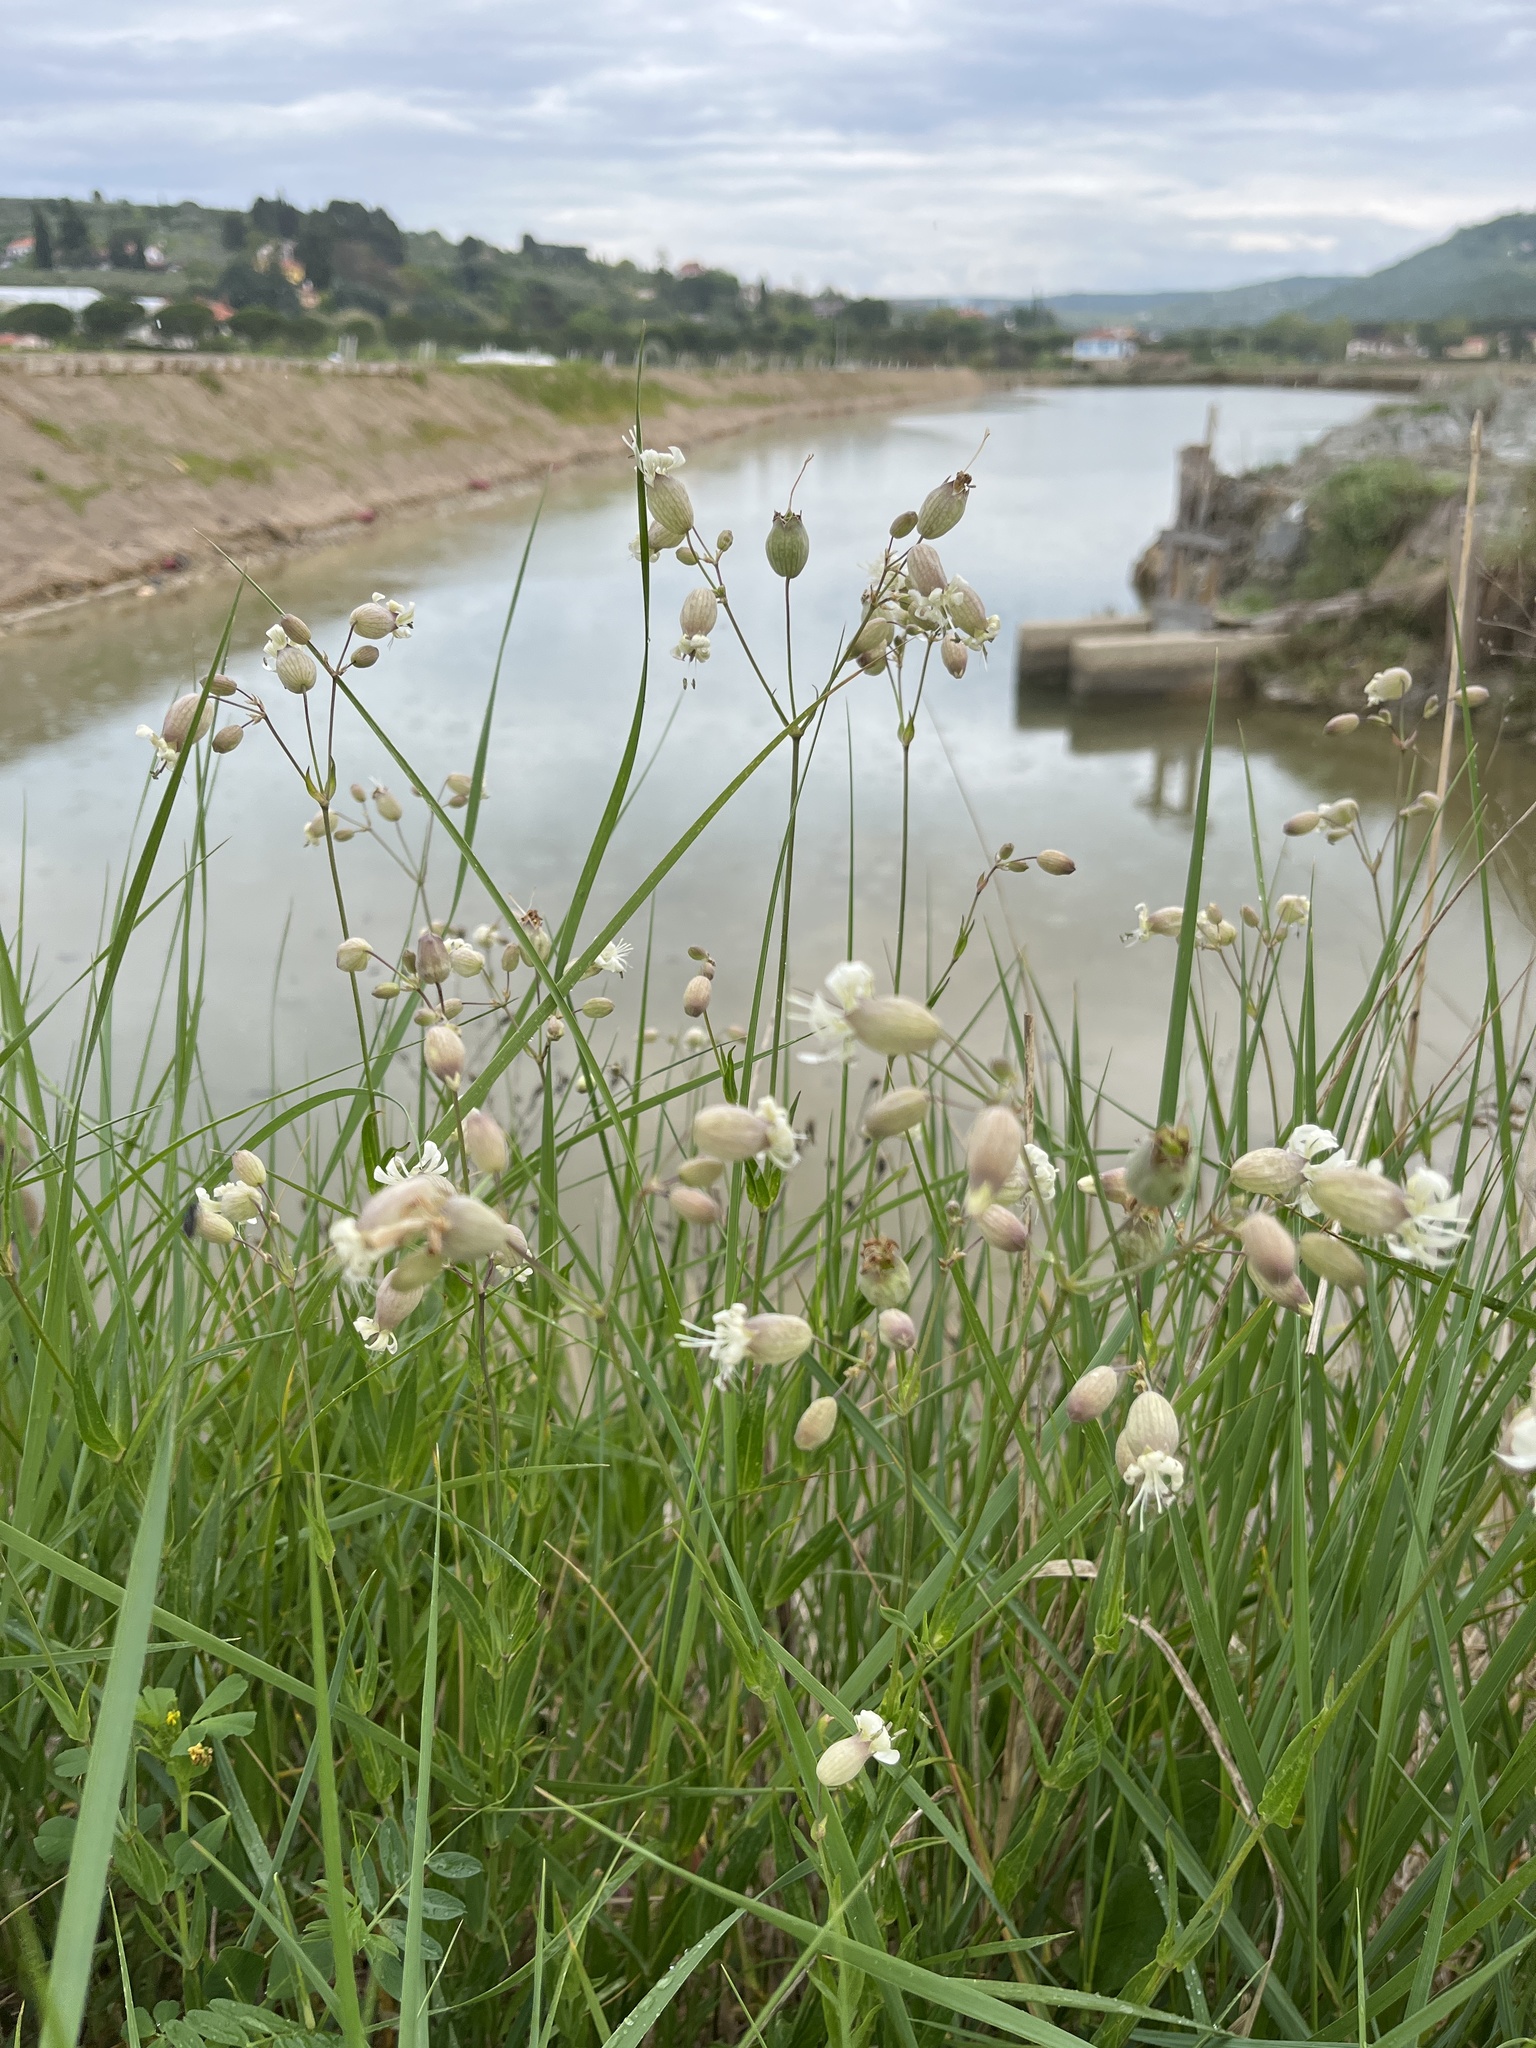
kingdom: Plantae
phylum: Tracheophyta
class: Magnoliopsida
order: Caryophyllales
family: Caryophyllaceae
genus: Silene
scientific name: Silene vulgaris
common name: Bladder campion
